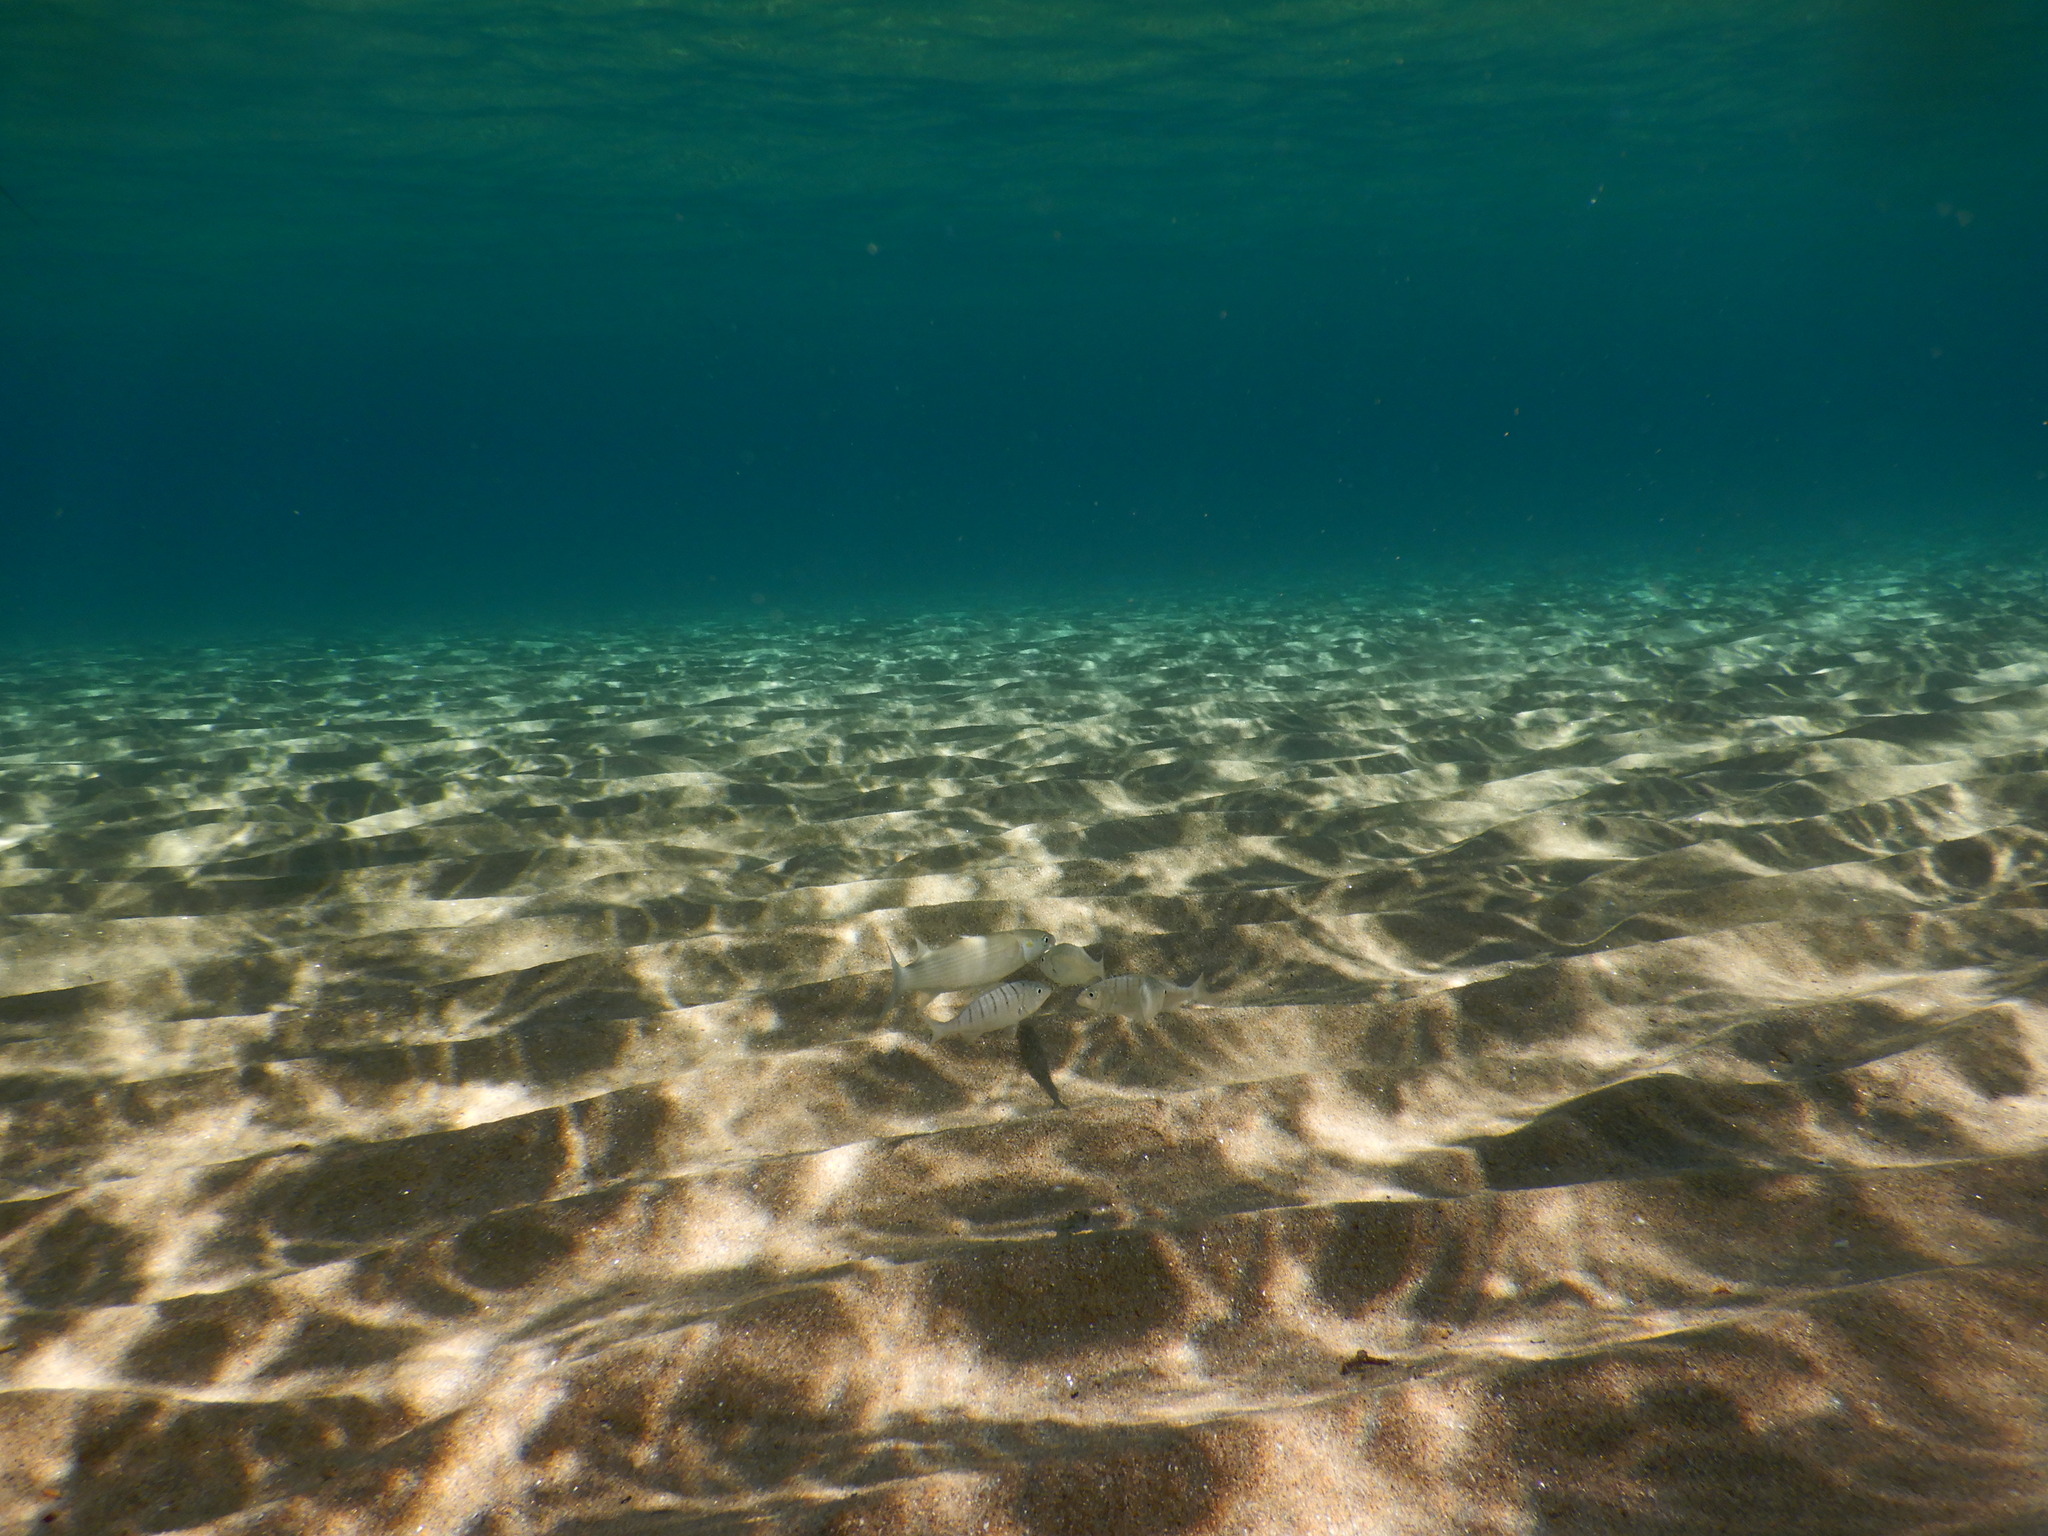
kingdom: Animalia
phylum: Chordata
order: Mugiliformes
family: Mugilidae
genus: Chelon
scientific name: Chelon
